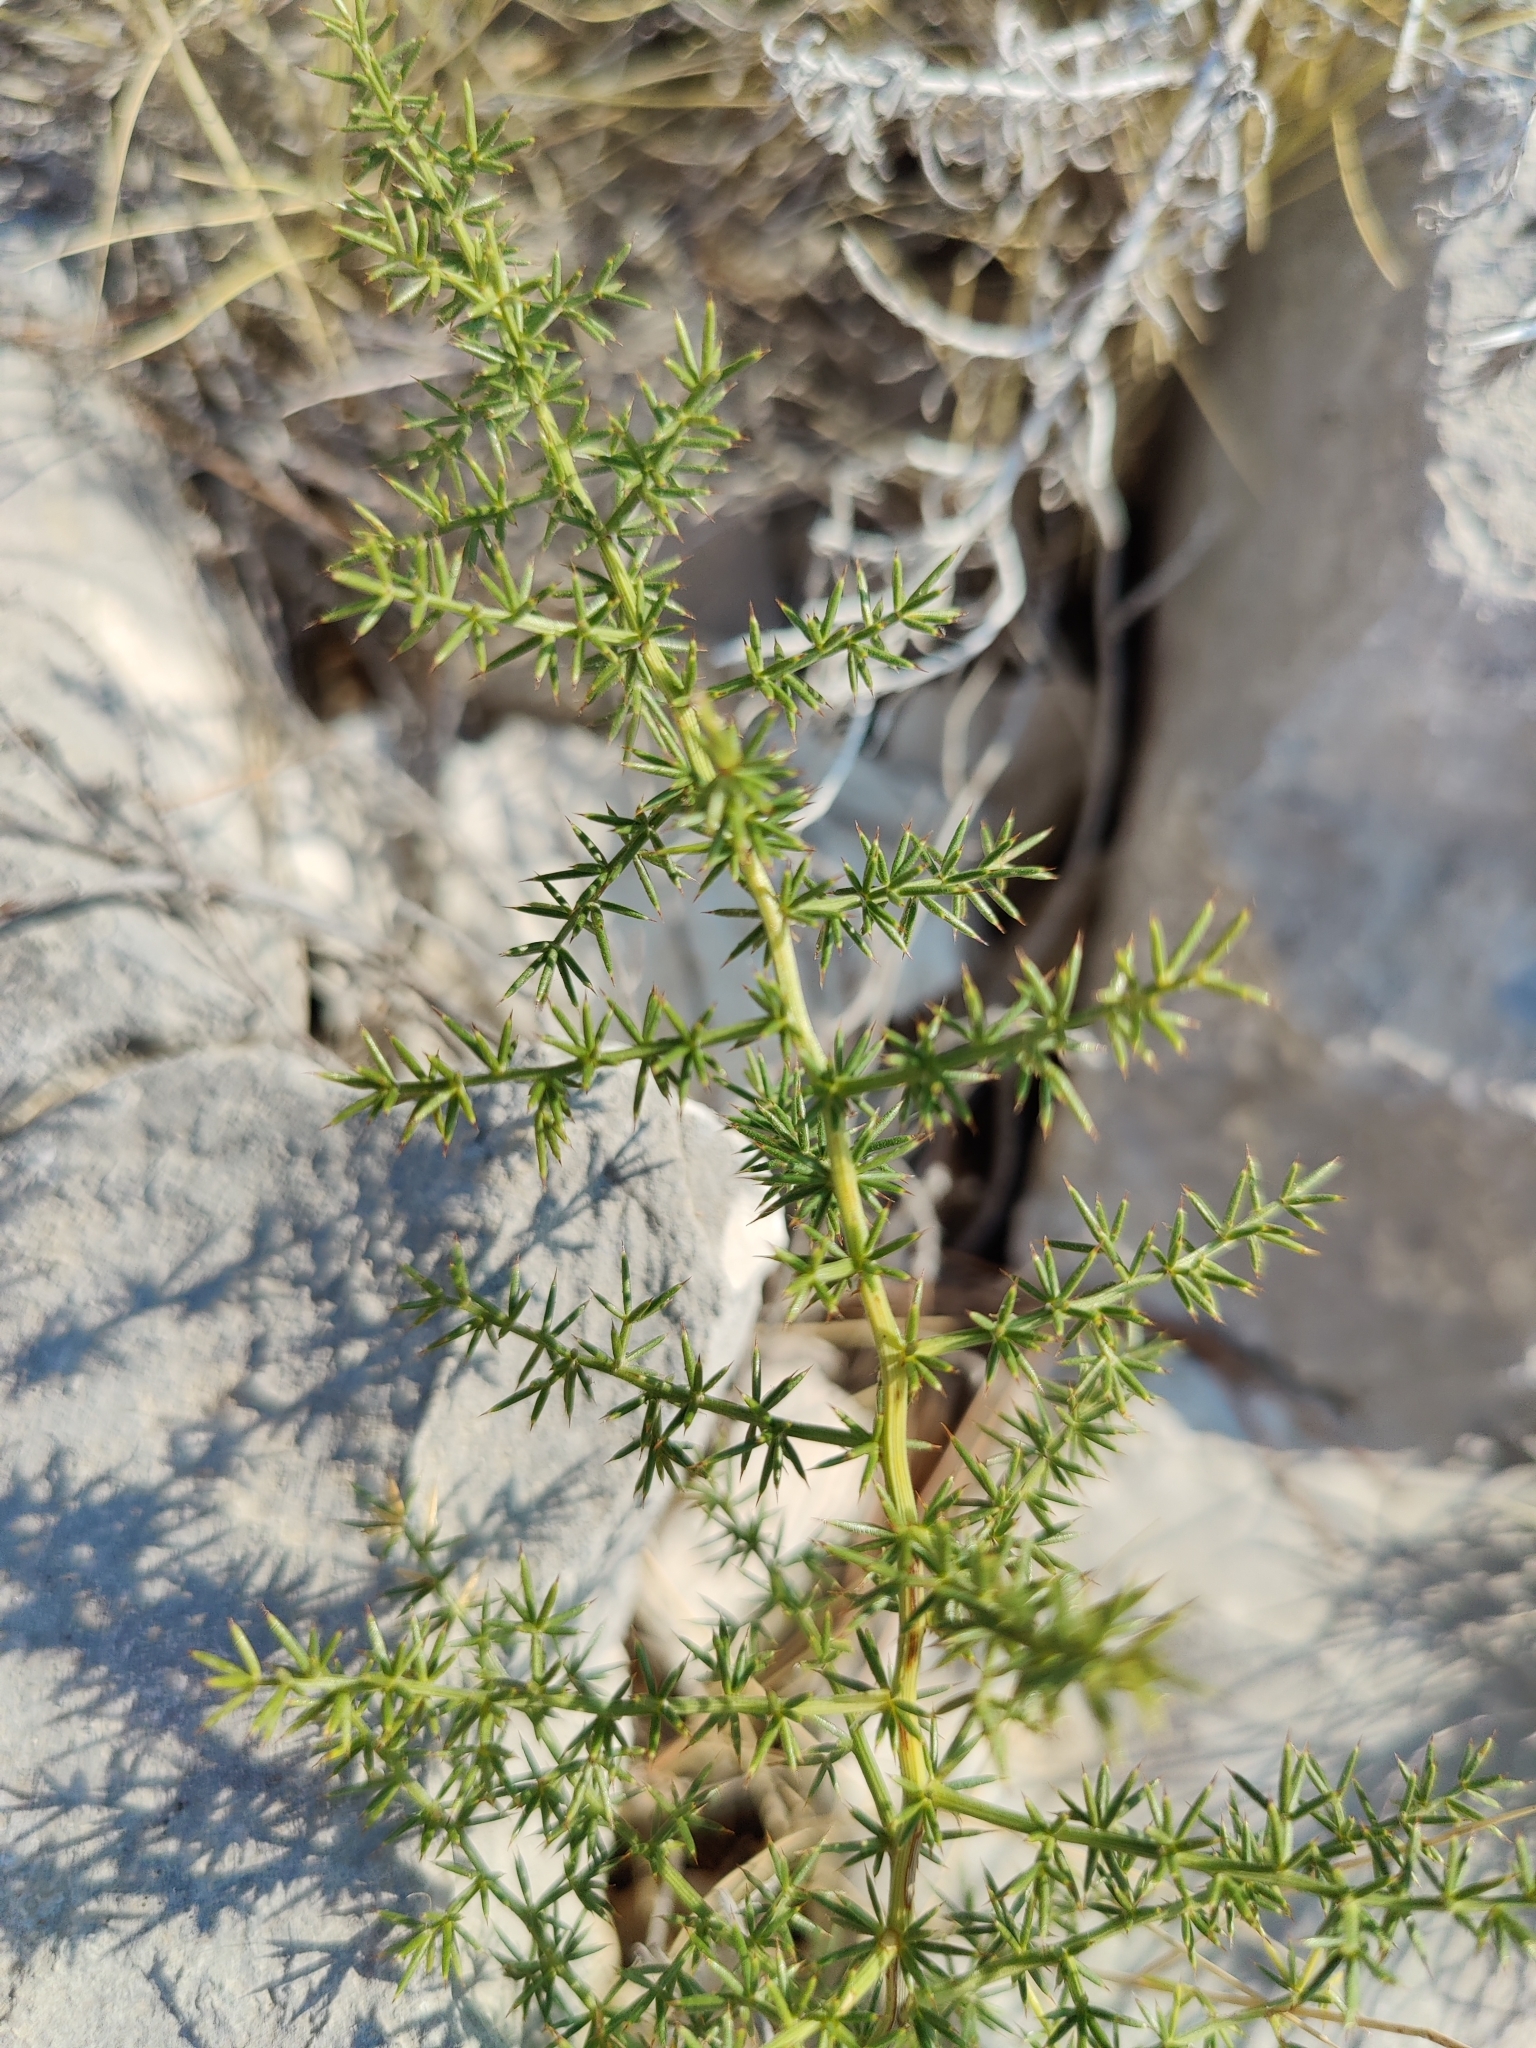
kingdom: Plantae
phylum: Tracheophyta
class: Liliopsida
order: Asparagales
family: Asparagaceae
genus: Asparagus
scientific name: Asparagus acutifolius
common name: Wild asparagus
